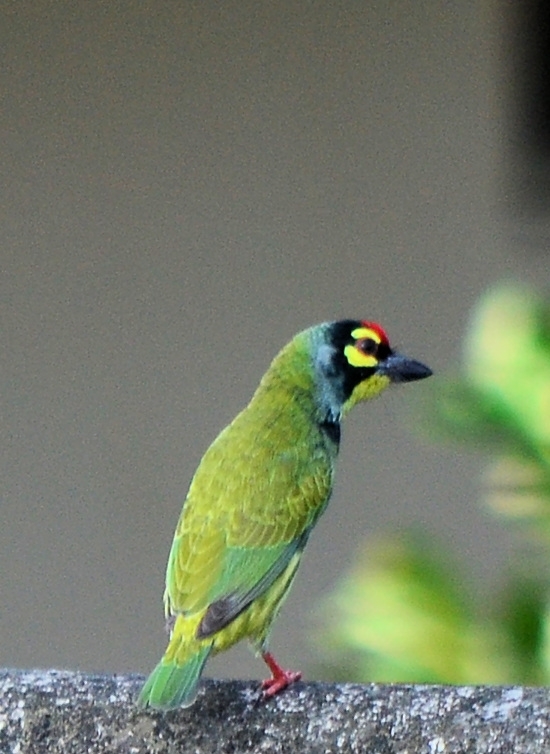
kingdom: Animalia
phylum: Chordata
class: Aves
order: Piciformes
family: Megalaimidae
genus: Psilopogon
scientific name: Psilopogon haemacephalus
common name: Coppersmith barbet
